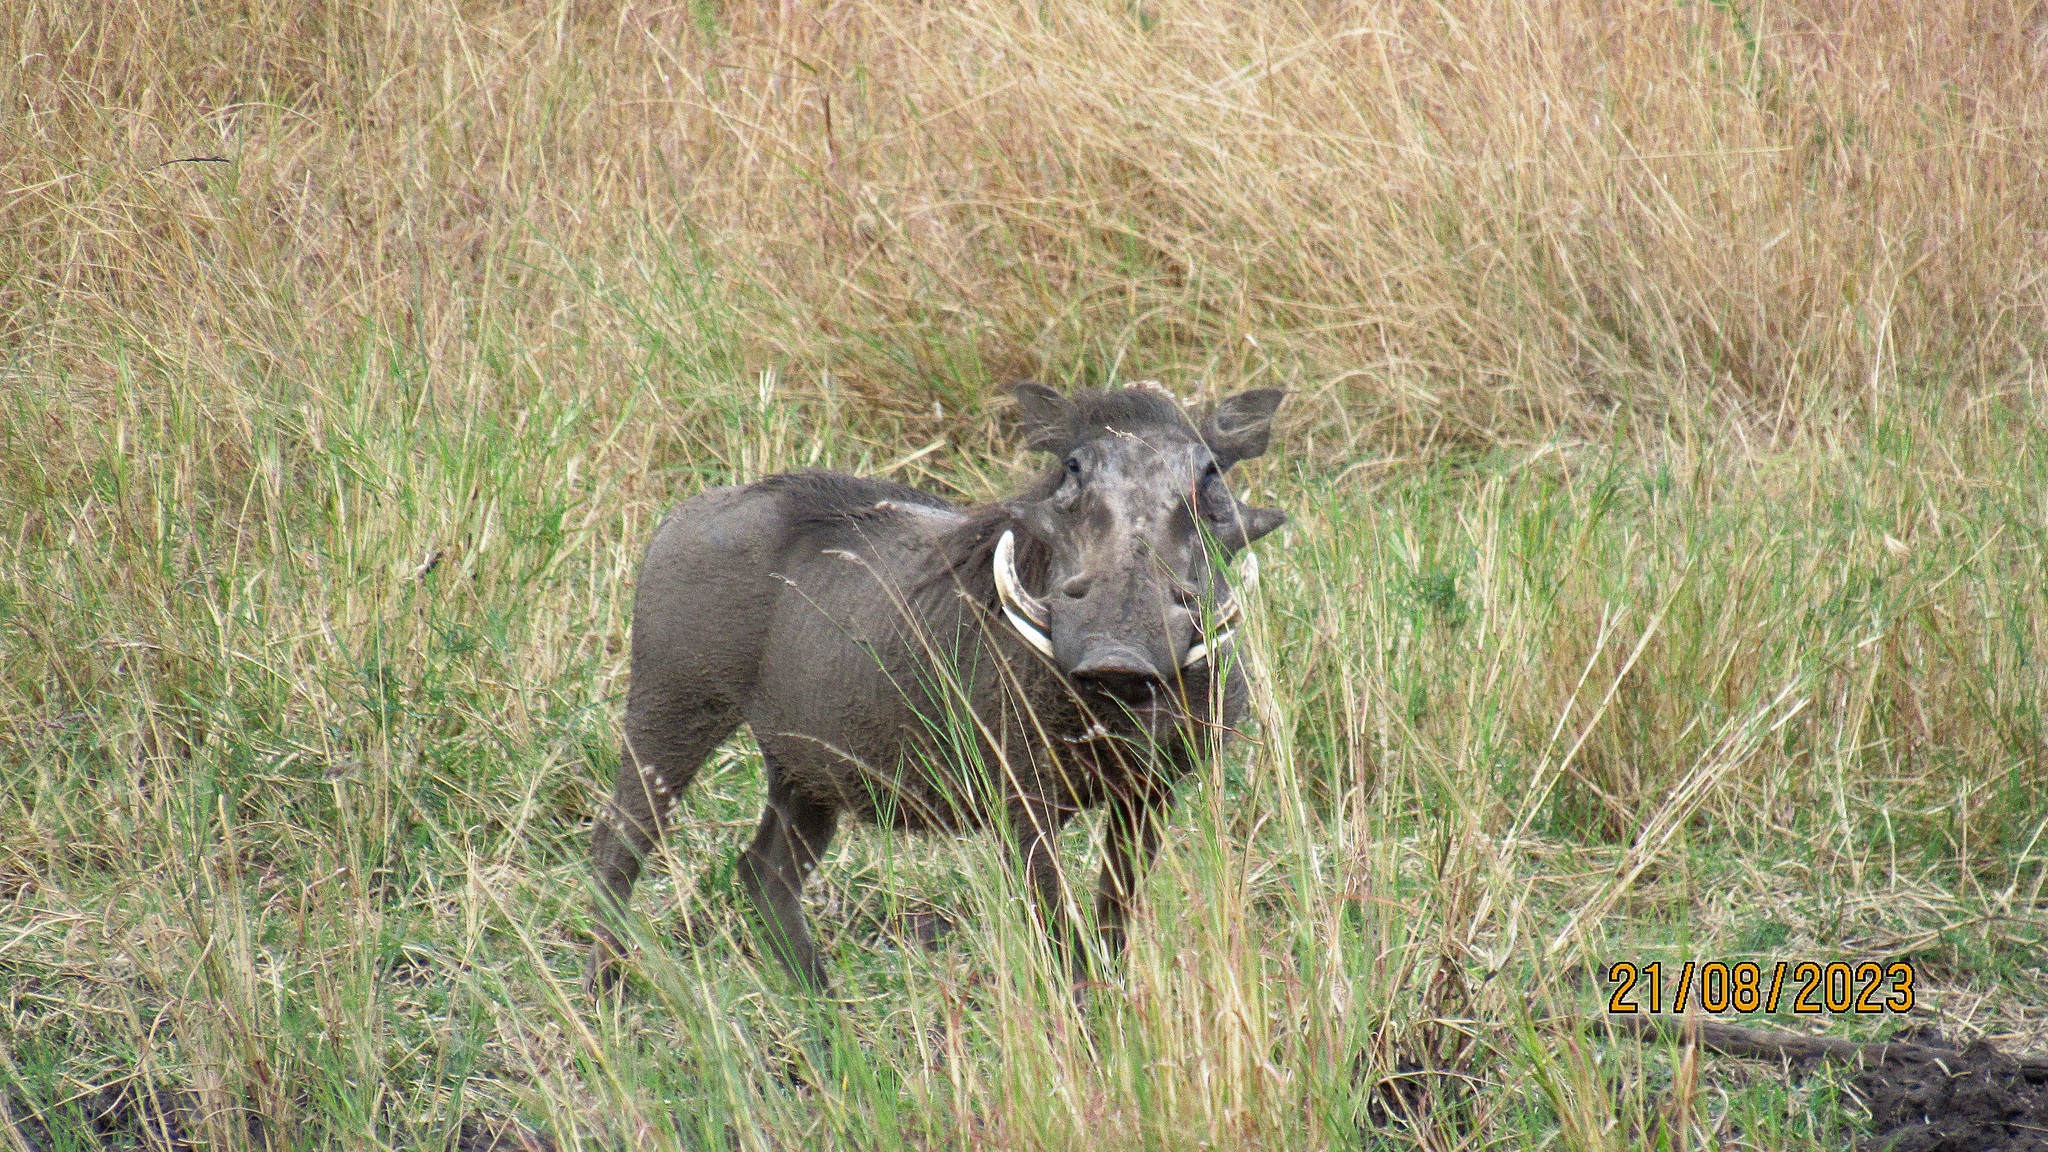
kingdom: Animalia
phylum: Chordata
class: Mammalia
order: Artiodactyla
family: Suidae
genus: Phacochoerus
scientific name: Phacochoerus africanus
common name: Common warthog
